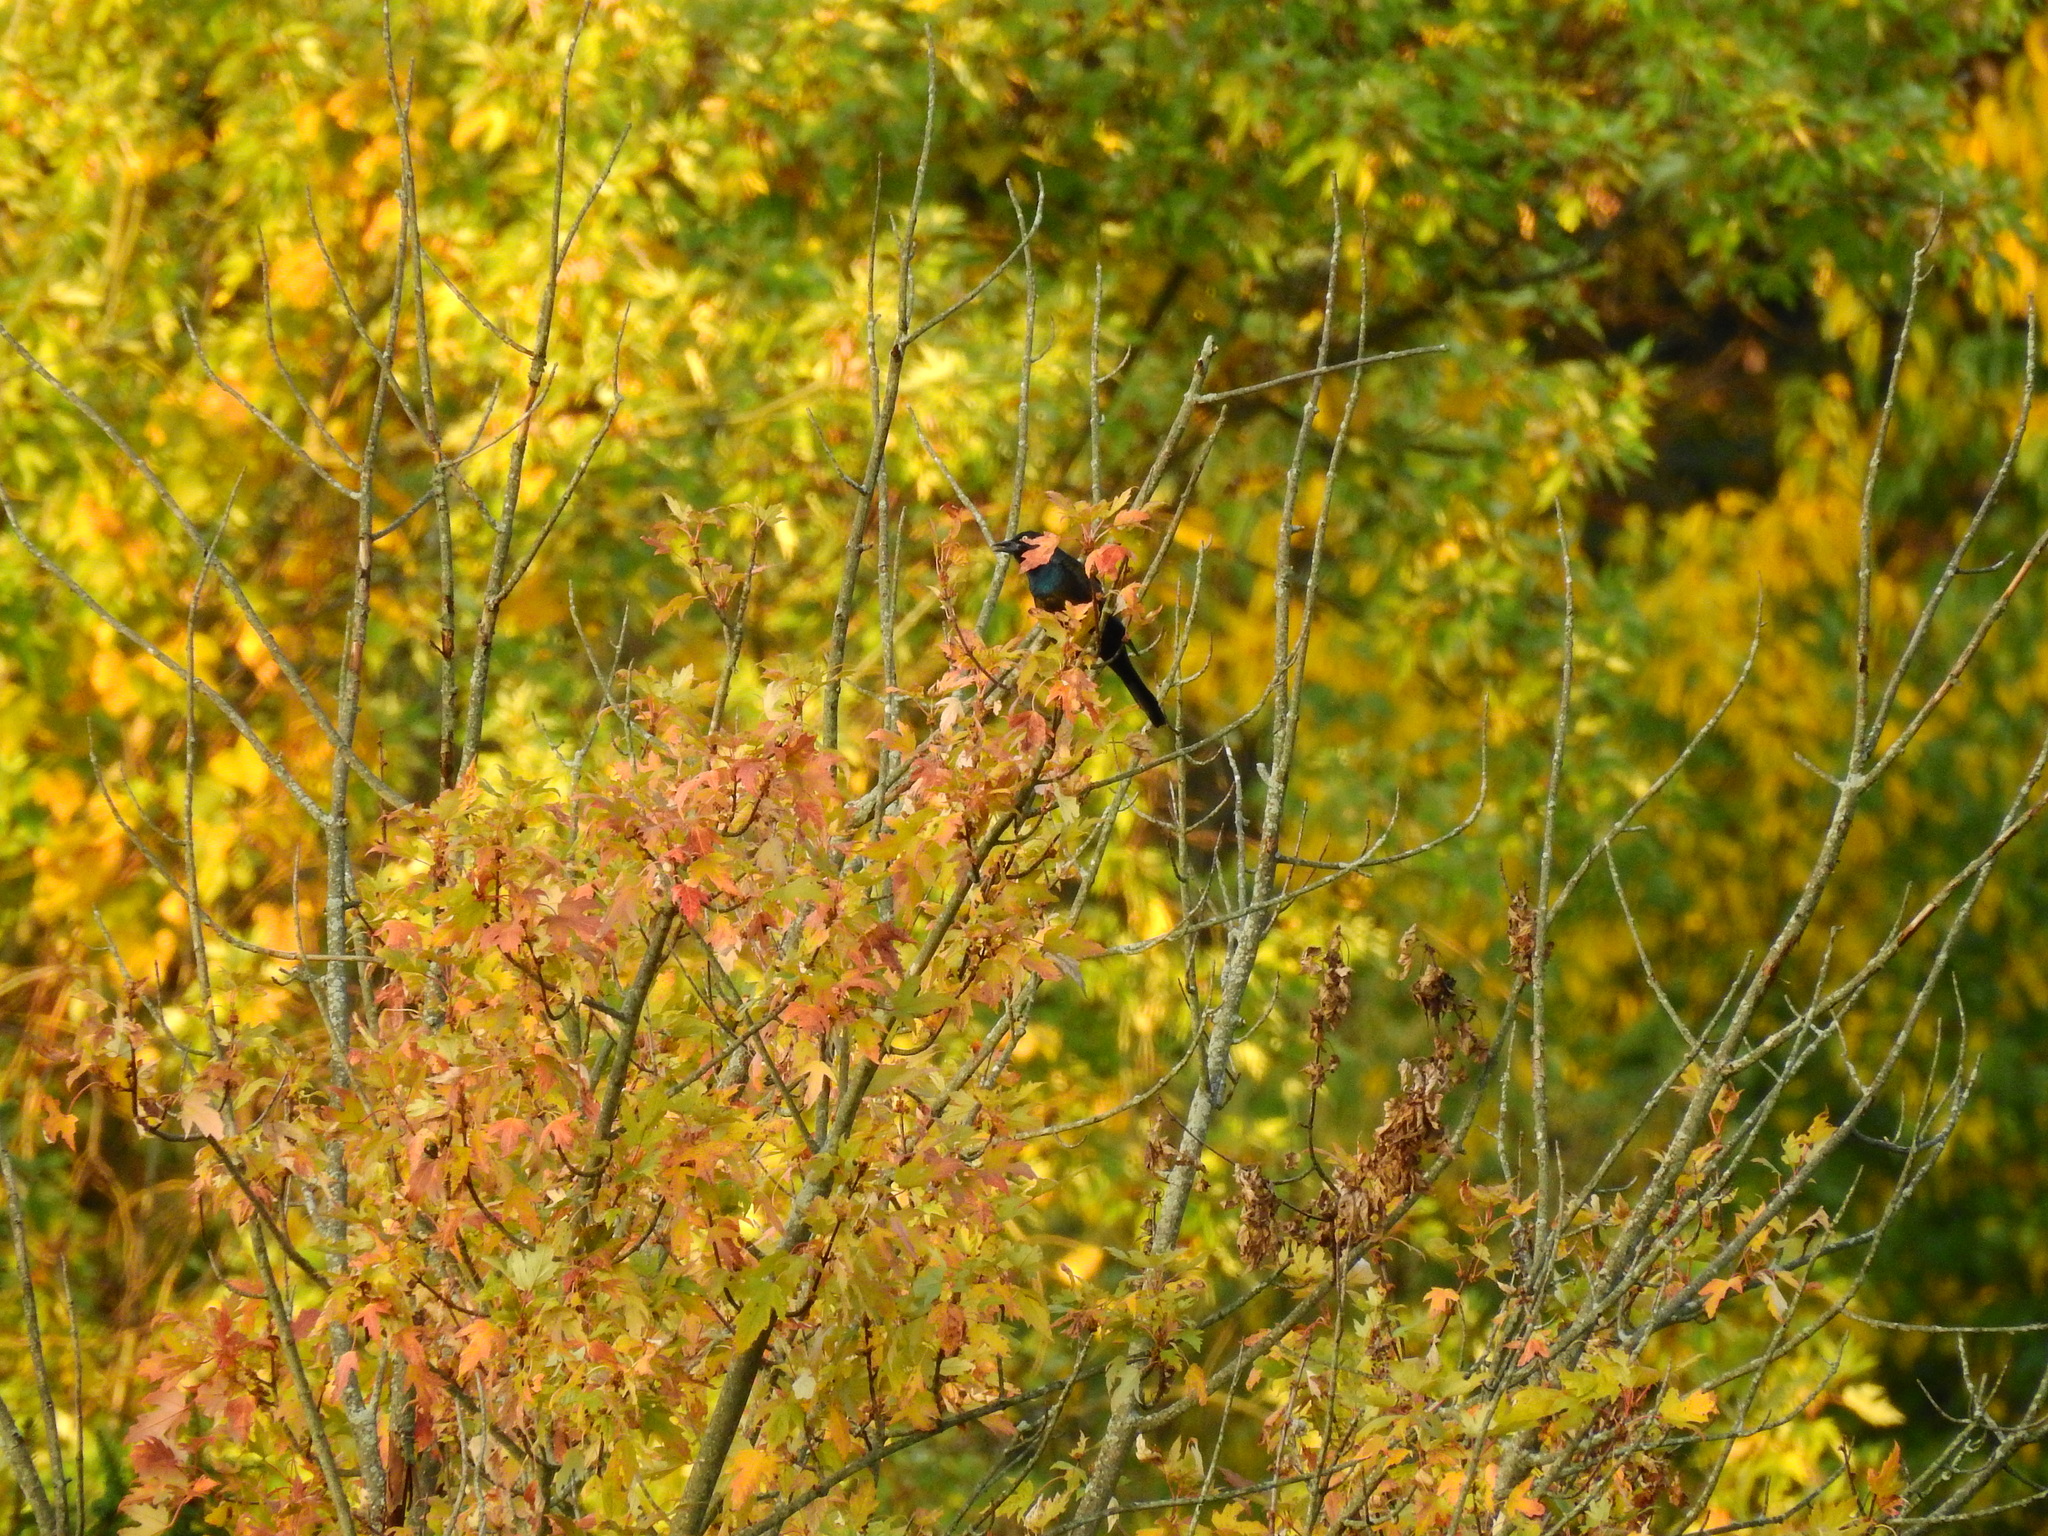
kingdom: Animalia
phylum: Chordata
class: Aves
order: Passeriformes
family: Icteridae
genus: Quiscalus
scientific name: Quiscalus quiscula
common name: Common grackle
